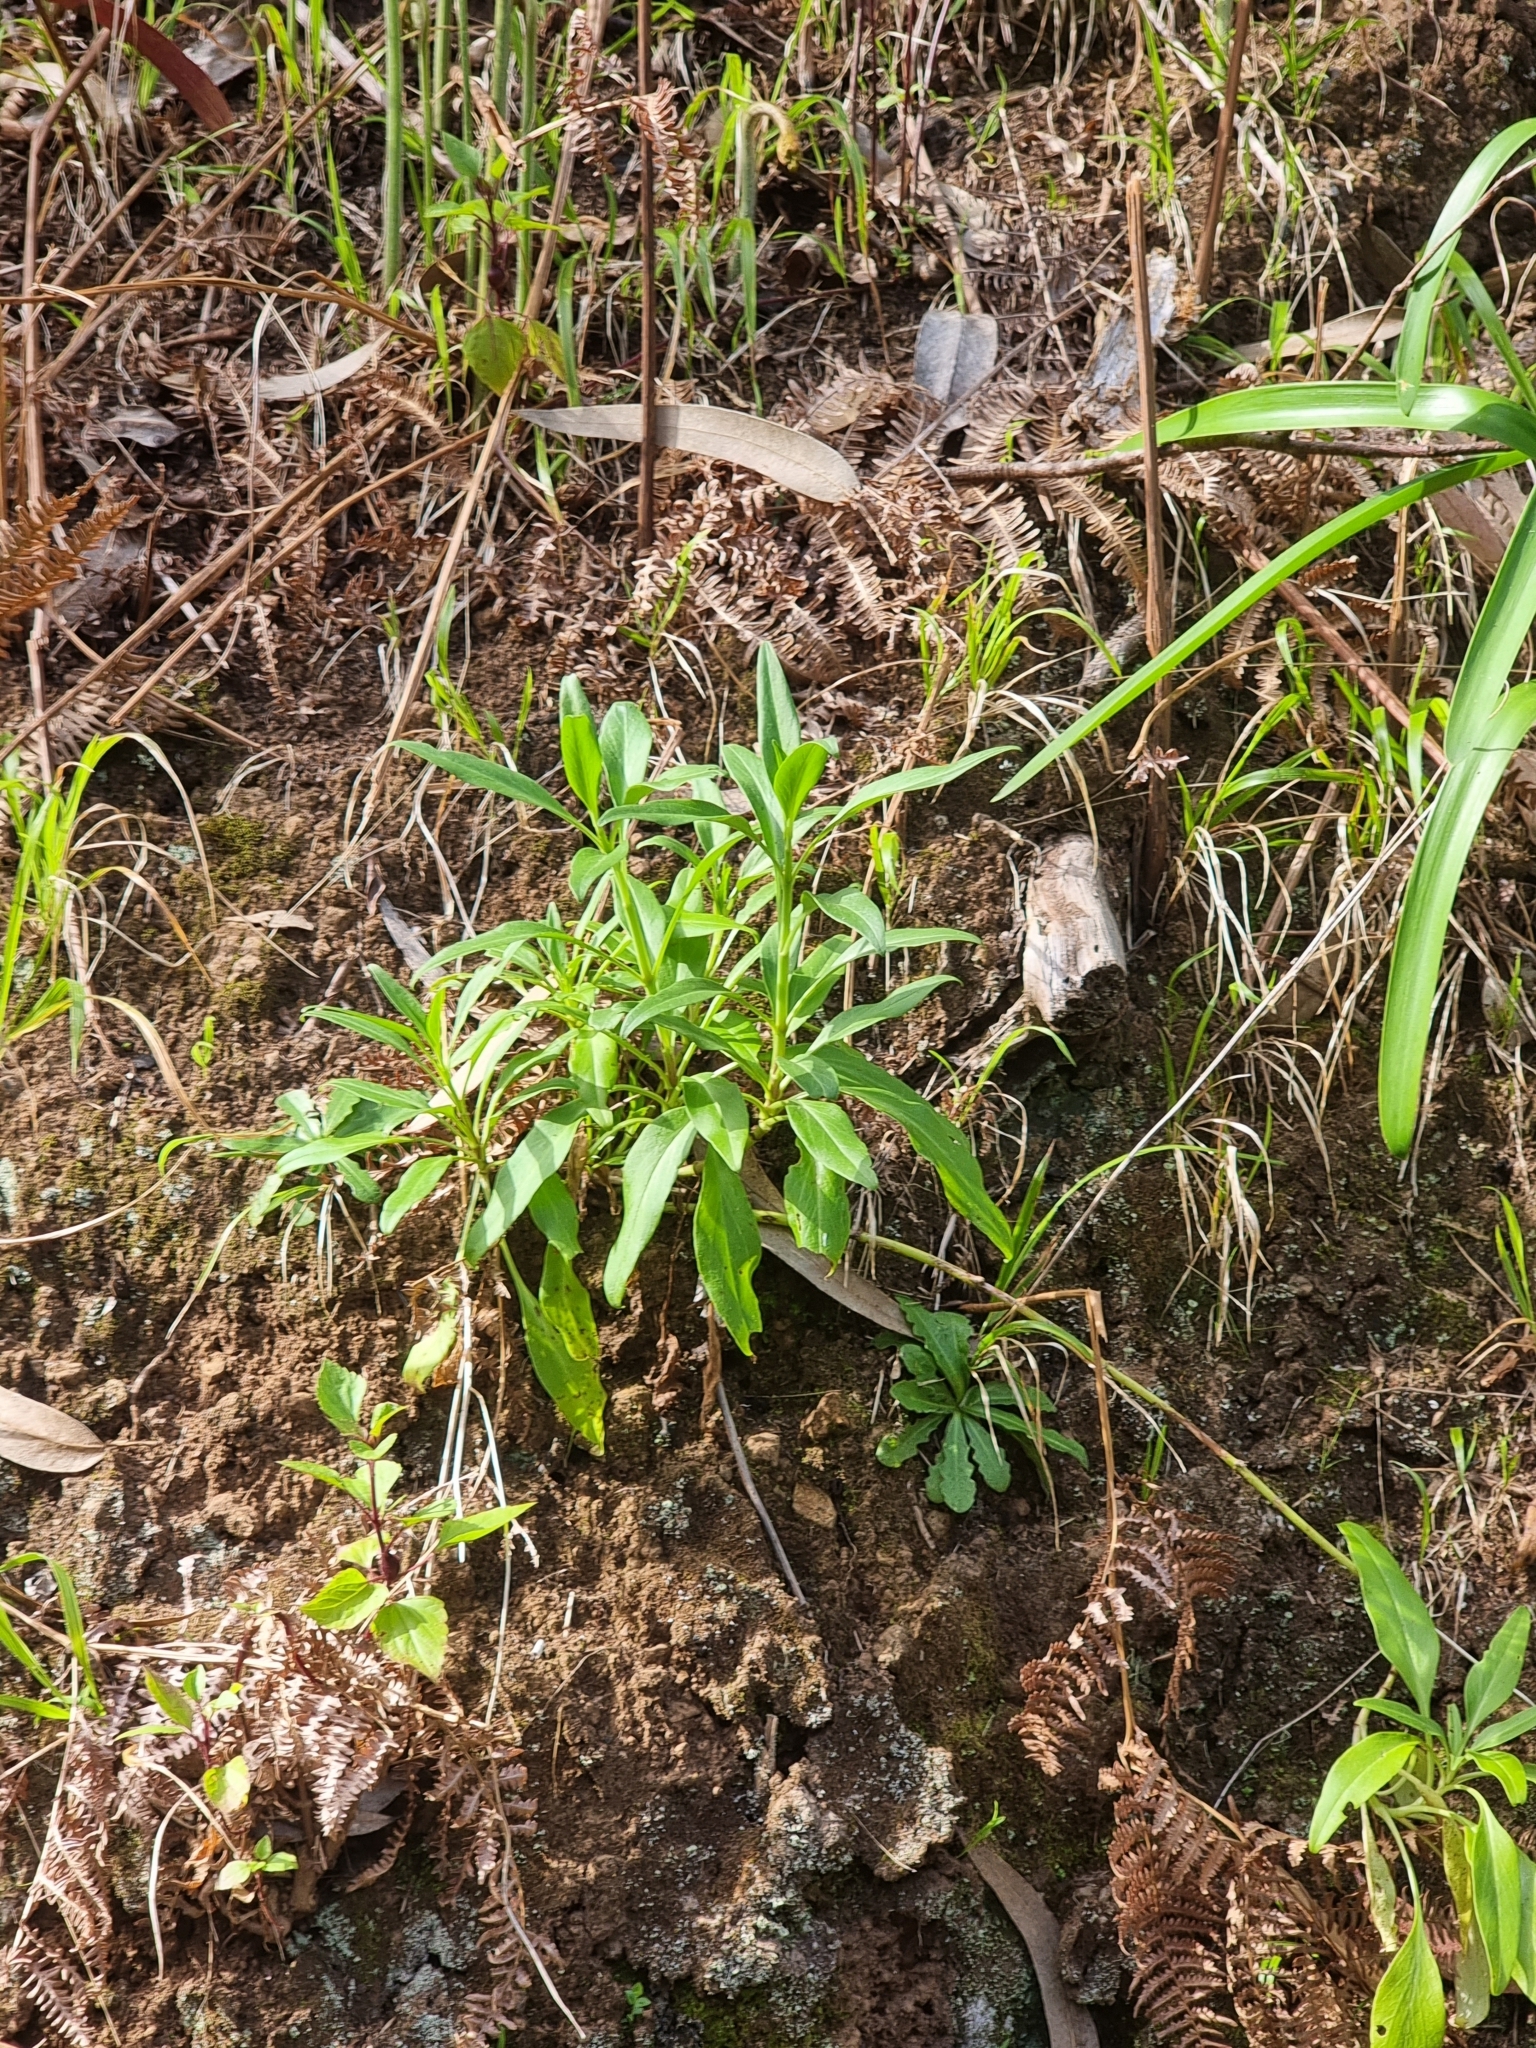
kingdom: Plantae
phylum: Tracheophyta
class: Magnoliopsida
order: Dipsacales
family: Caprifoliaceae
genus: Centranthus
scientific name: Centranthus ruber
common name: Red valerian
